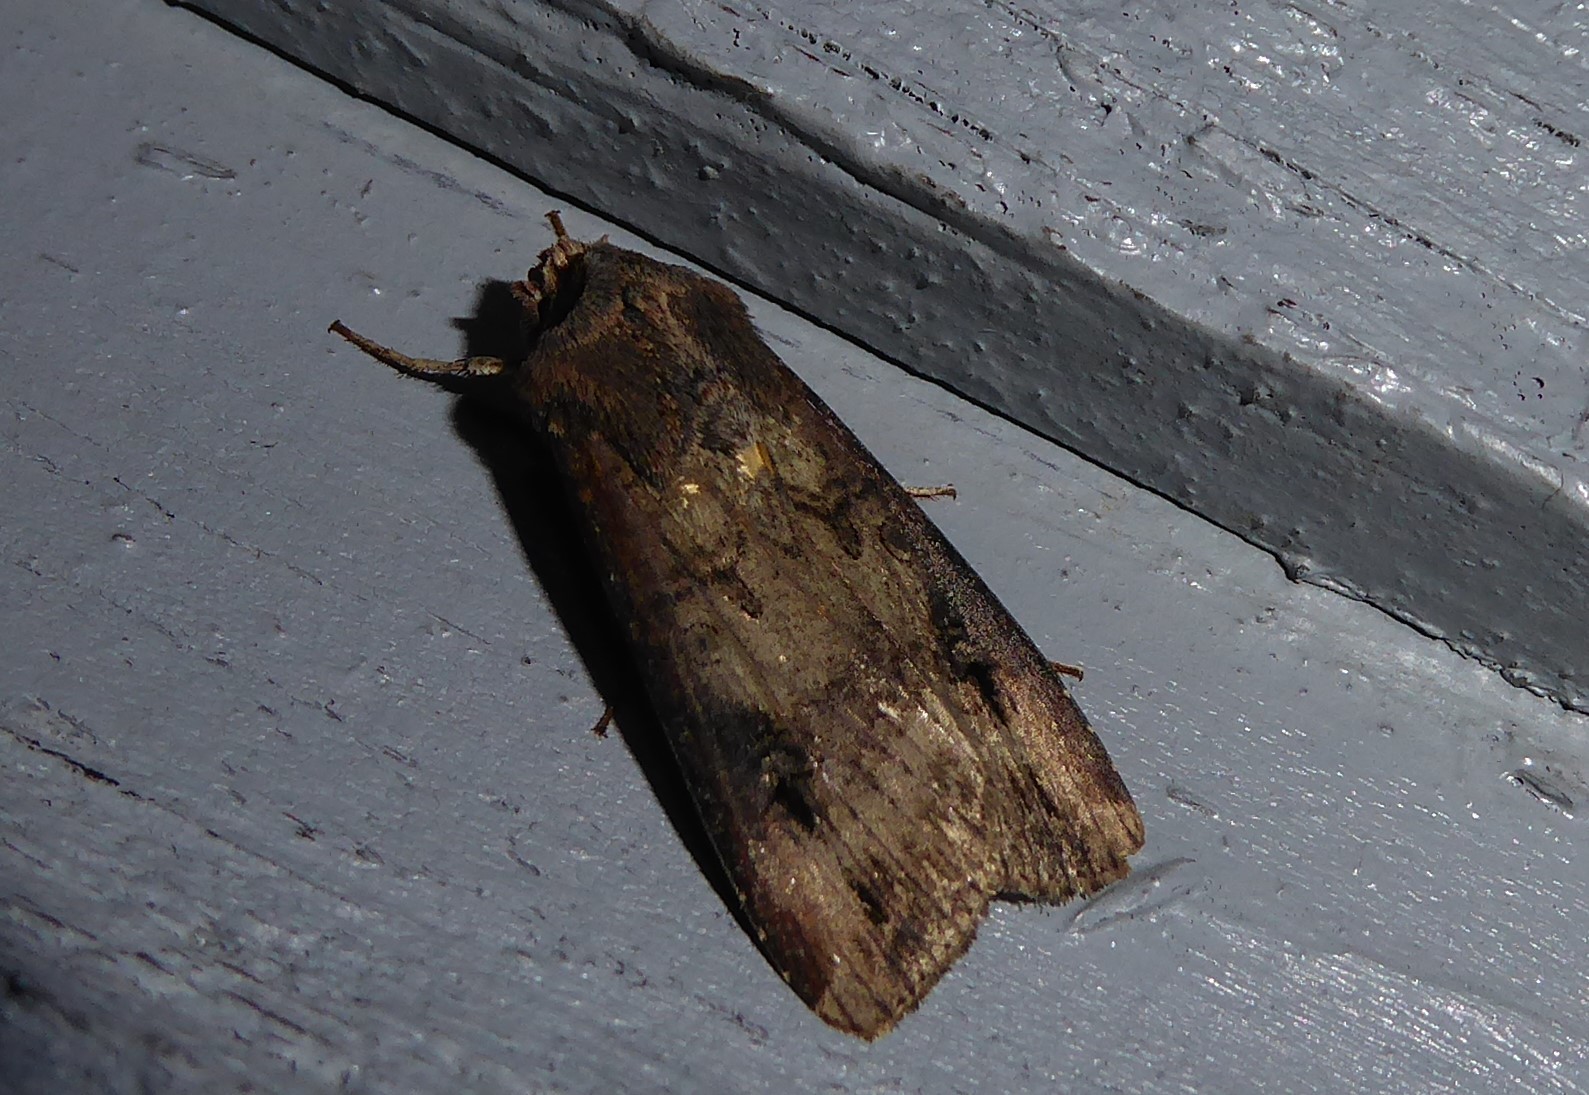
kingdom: Animalia
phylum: Arthropoda
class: Insecta
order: Lepidoptera
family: Noctuidae
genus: Agrotis
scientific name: Agrotis ipsilon
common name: Dark sword-grass
